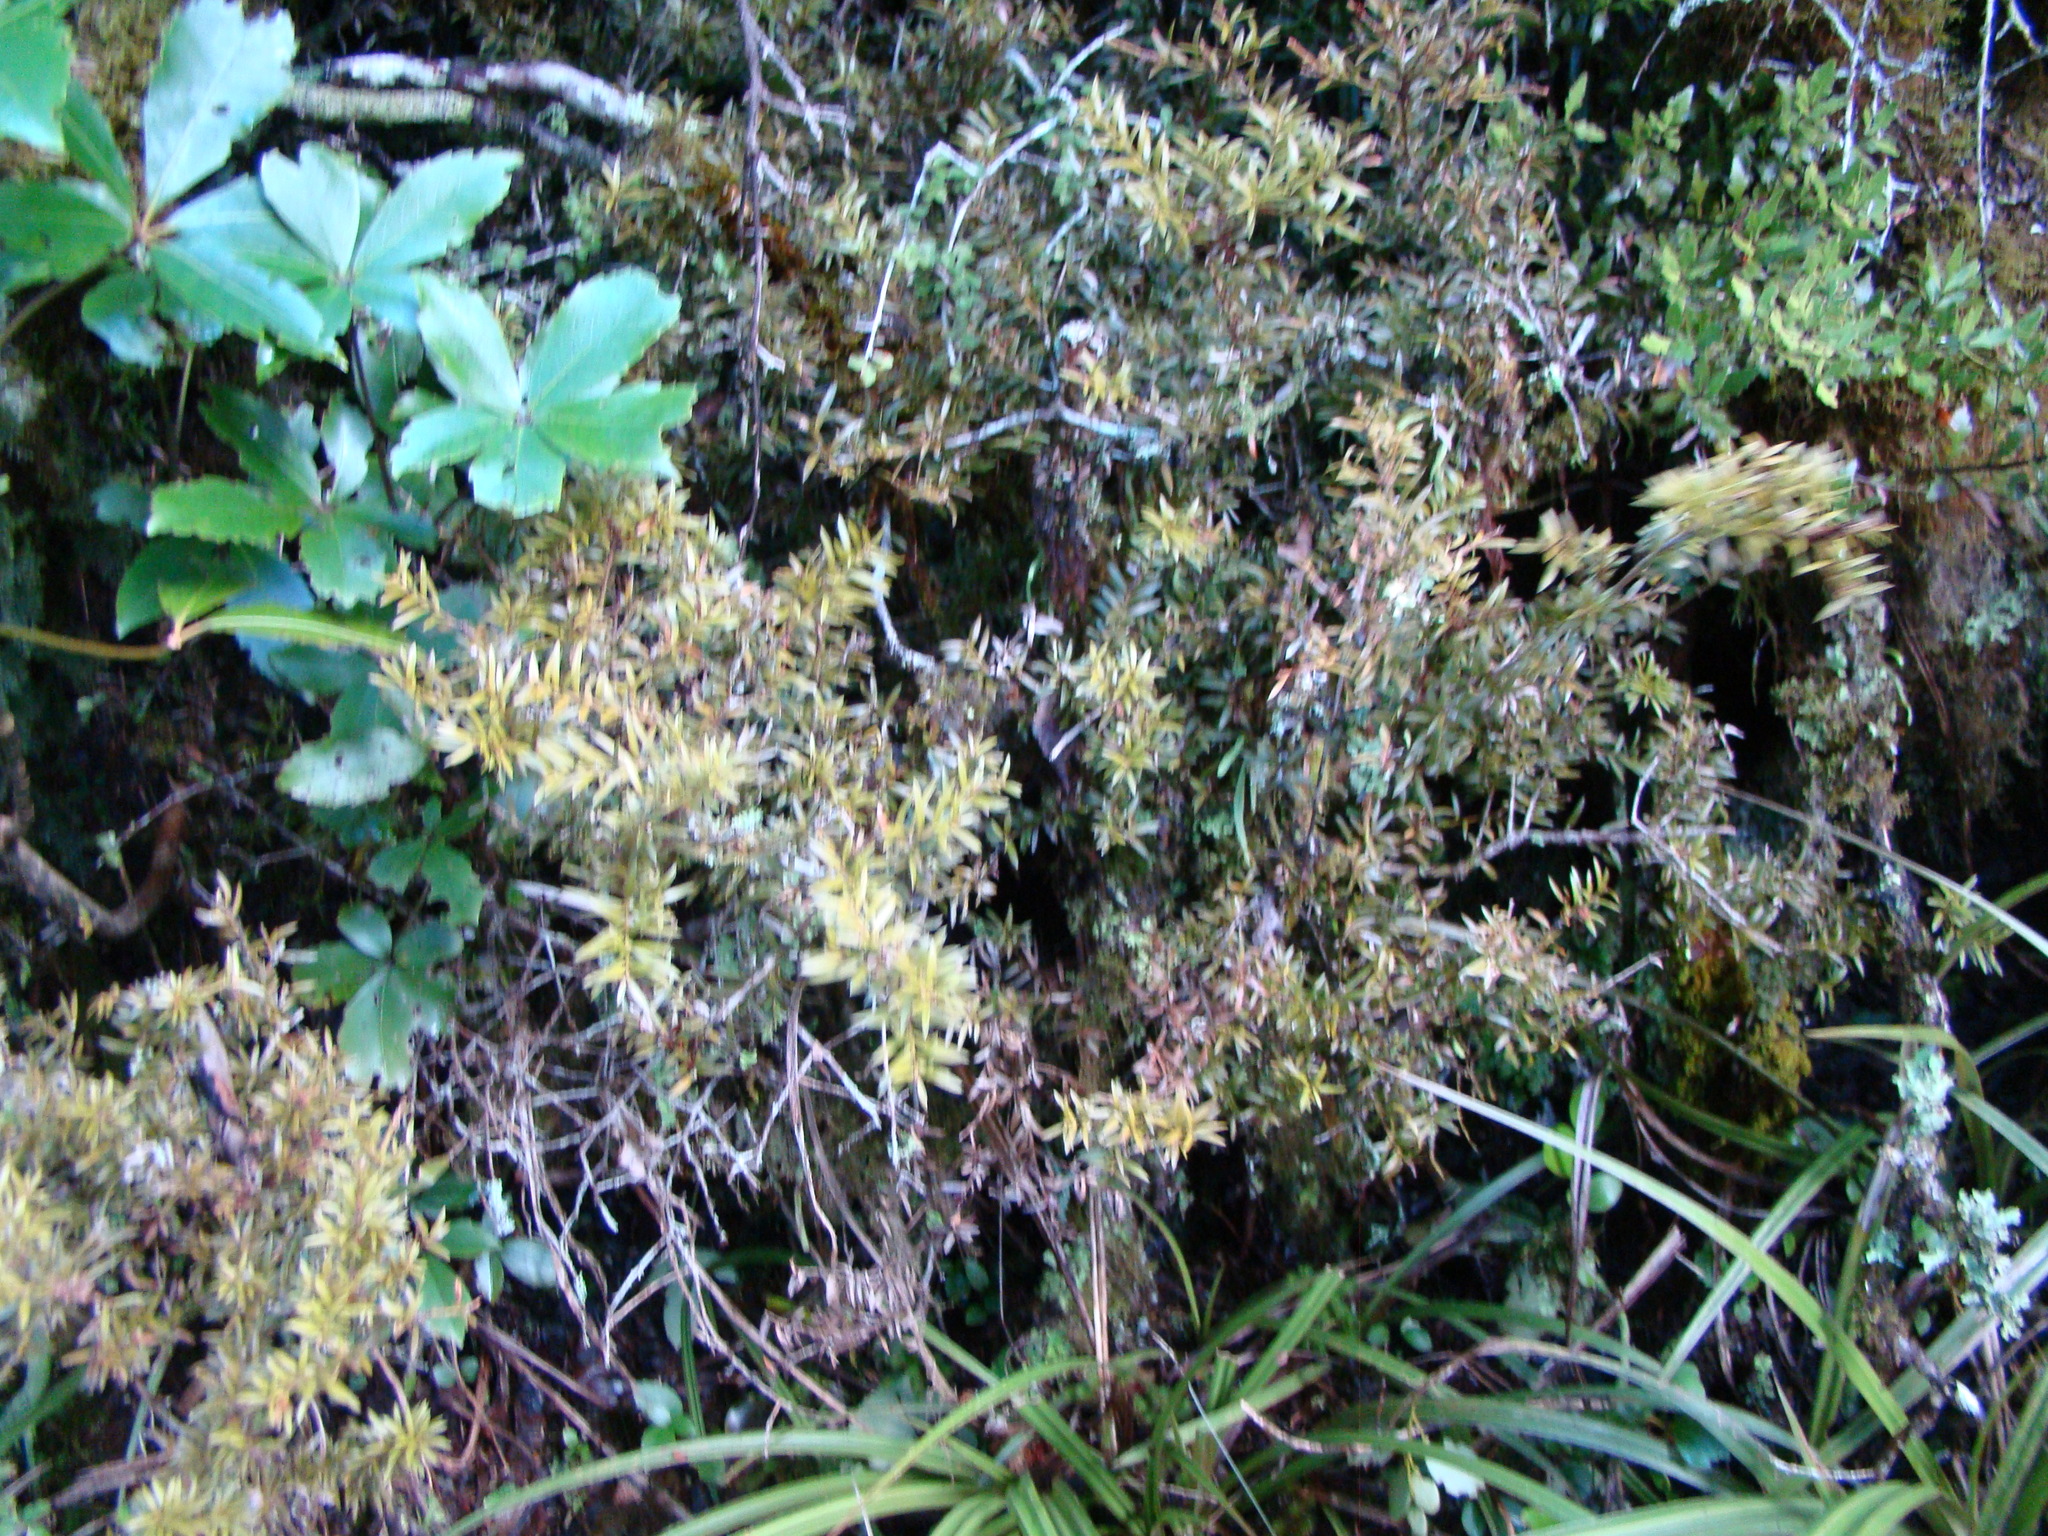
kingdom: Plantae
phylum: Tracheophyta
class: Pinopsida
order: Pinales
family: Podocarpaceae
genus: Podocarpus
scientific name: Podocarpus
